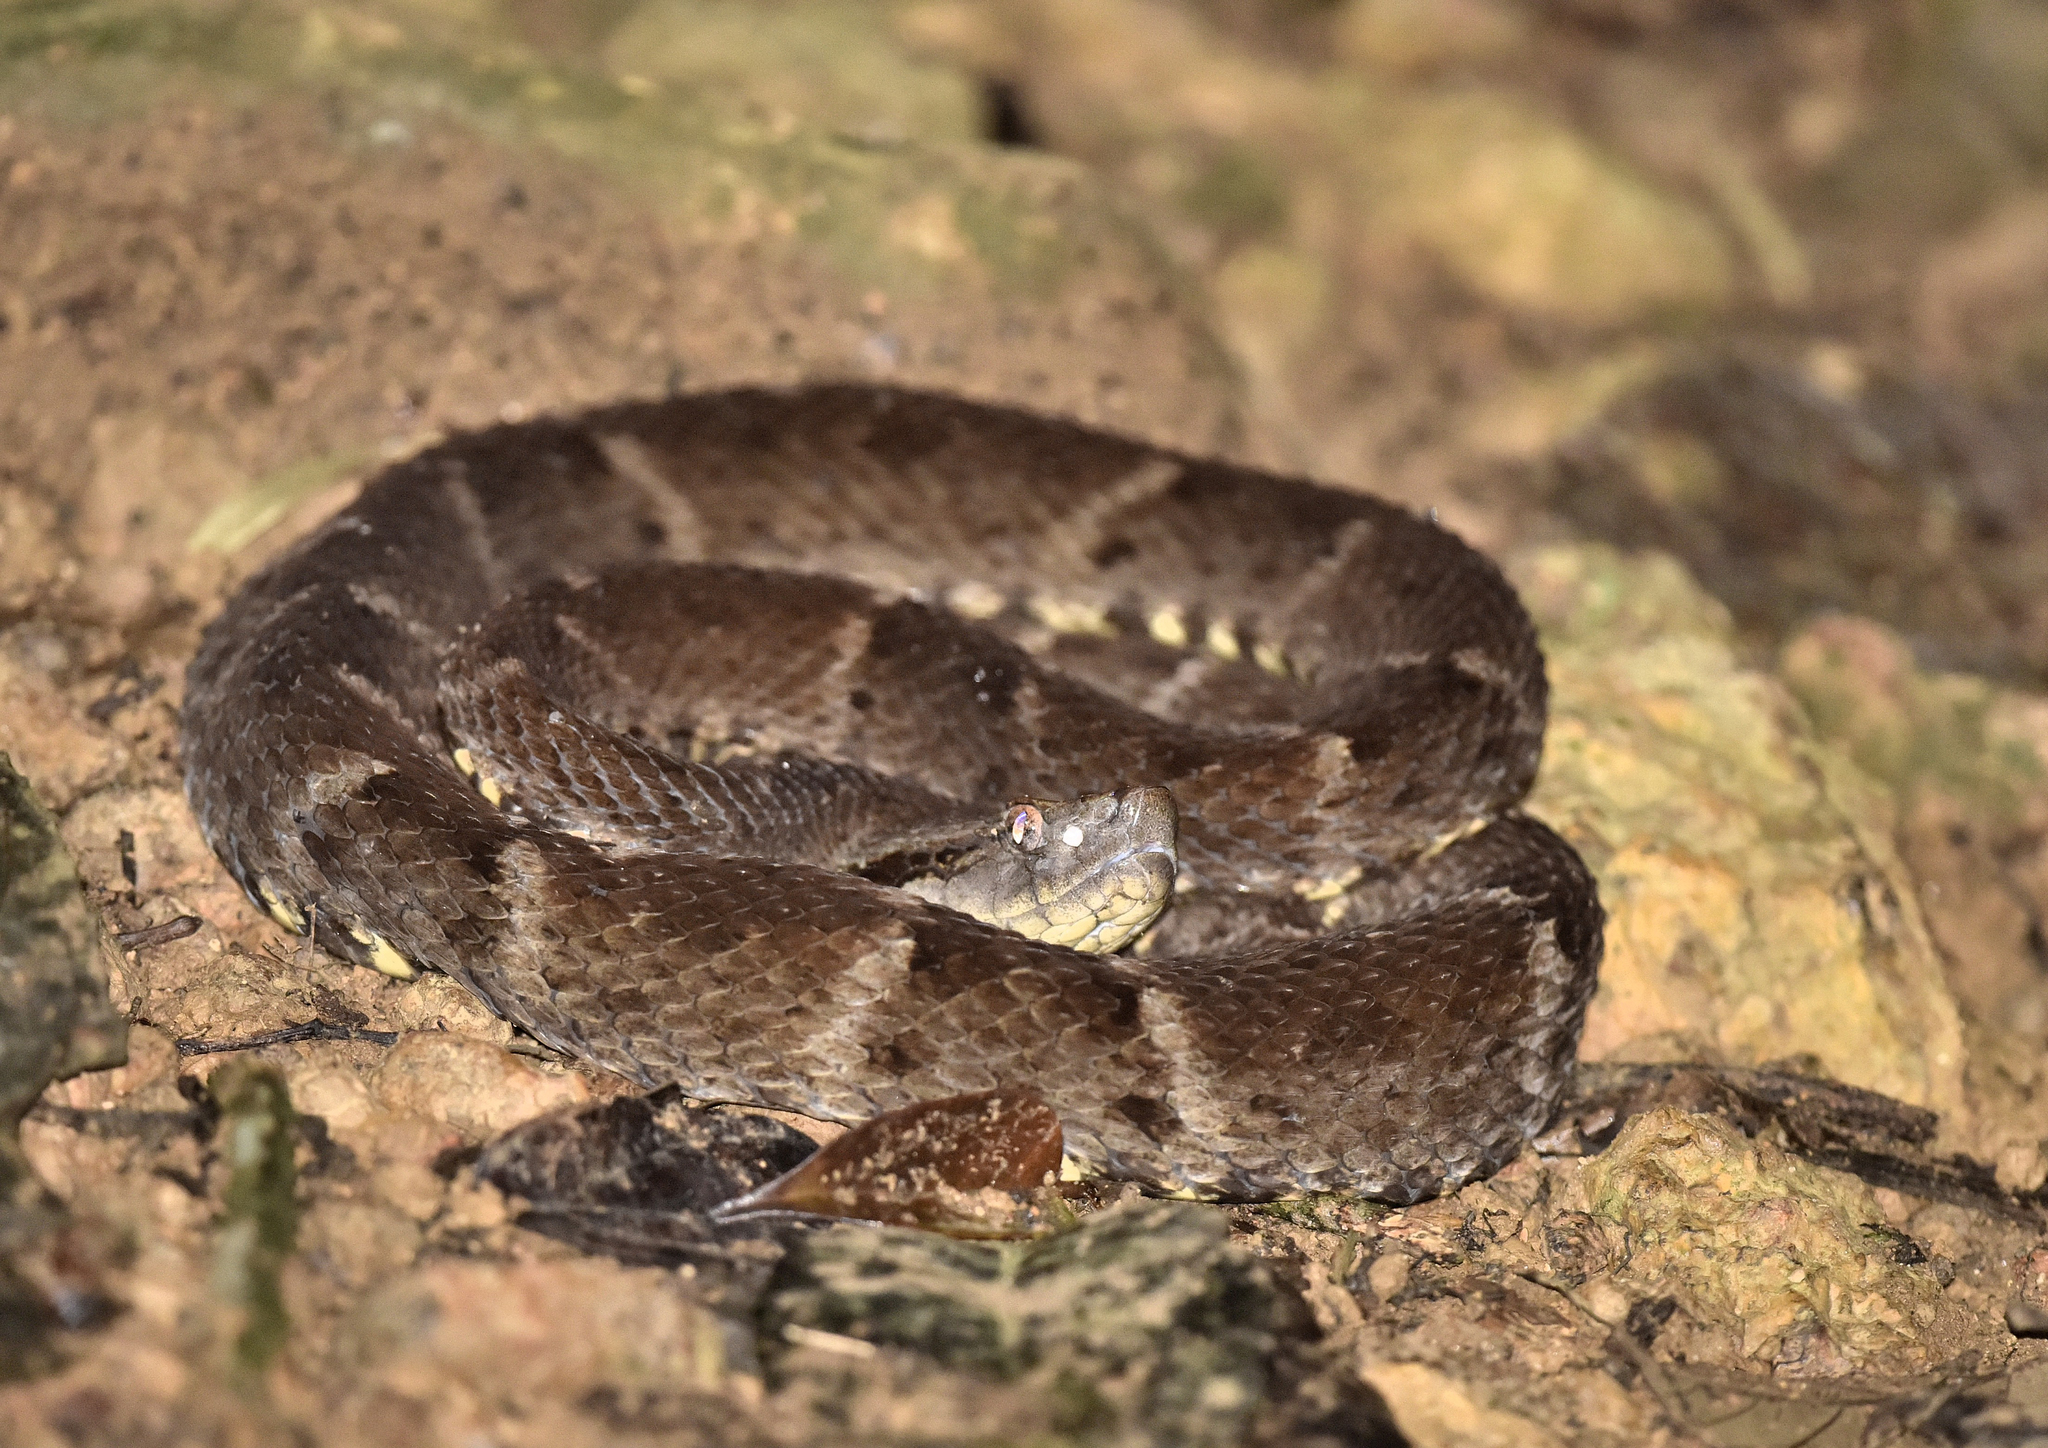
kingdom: Animalia
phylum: Chordata
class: Squamata
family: Viperidae
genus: Bothrops
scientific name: Bothrops atrox
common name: Common lancehead
